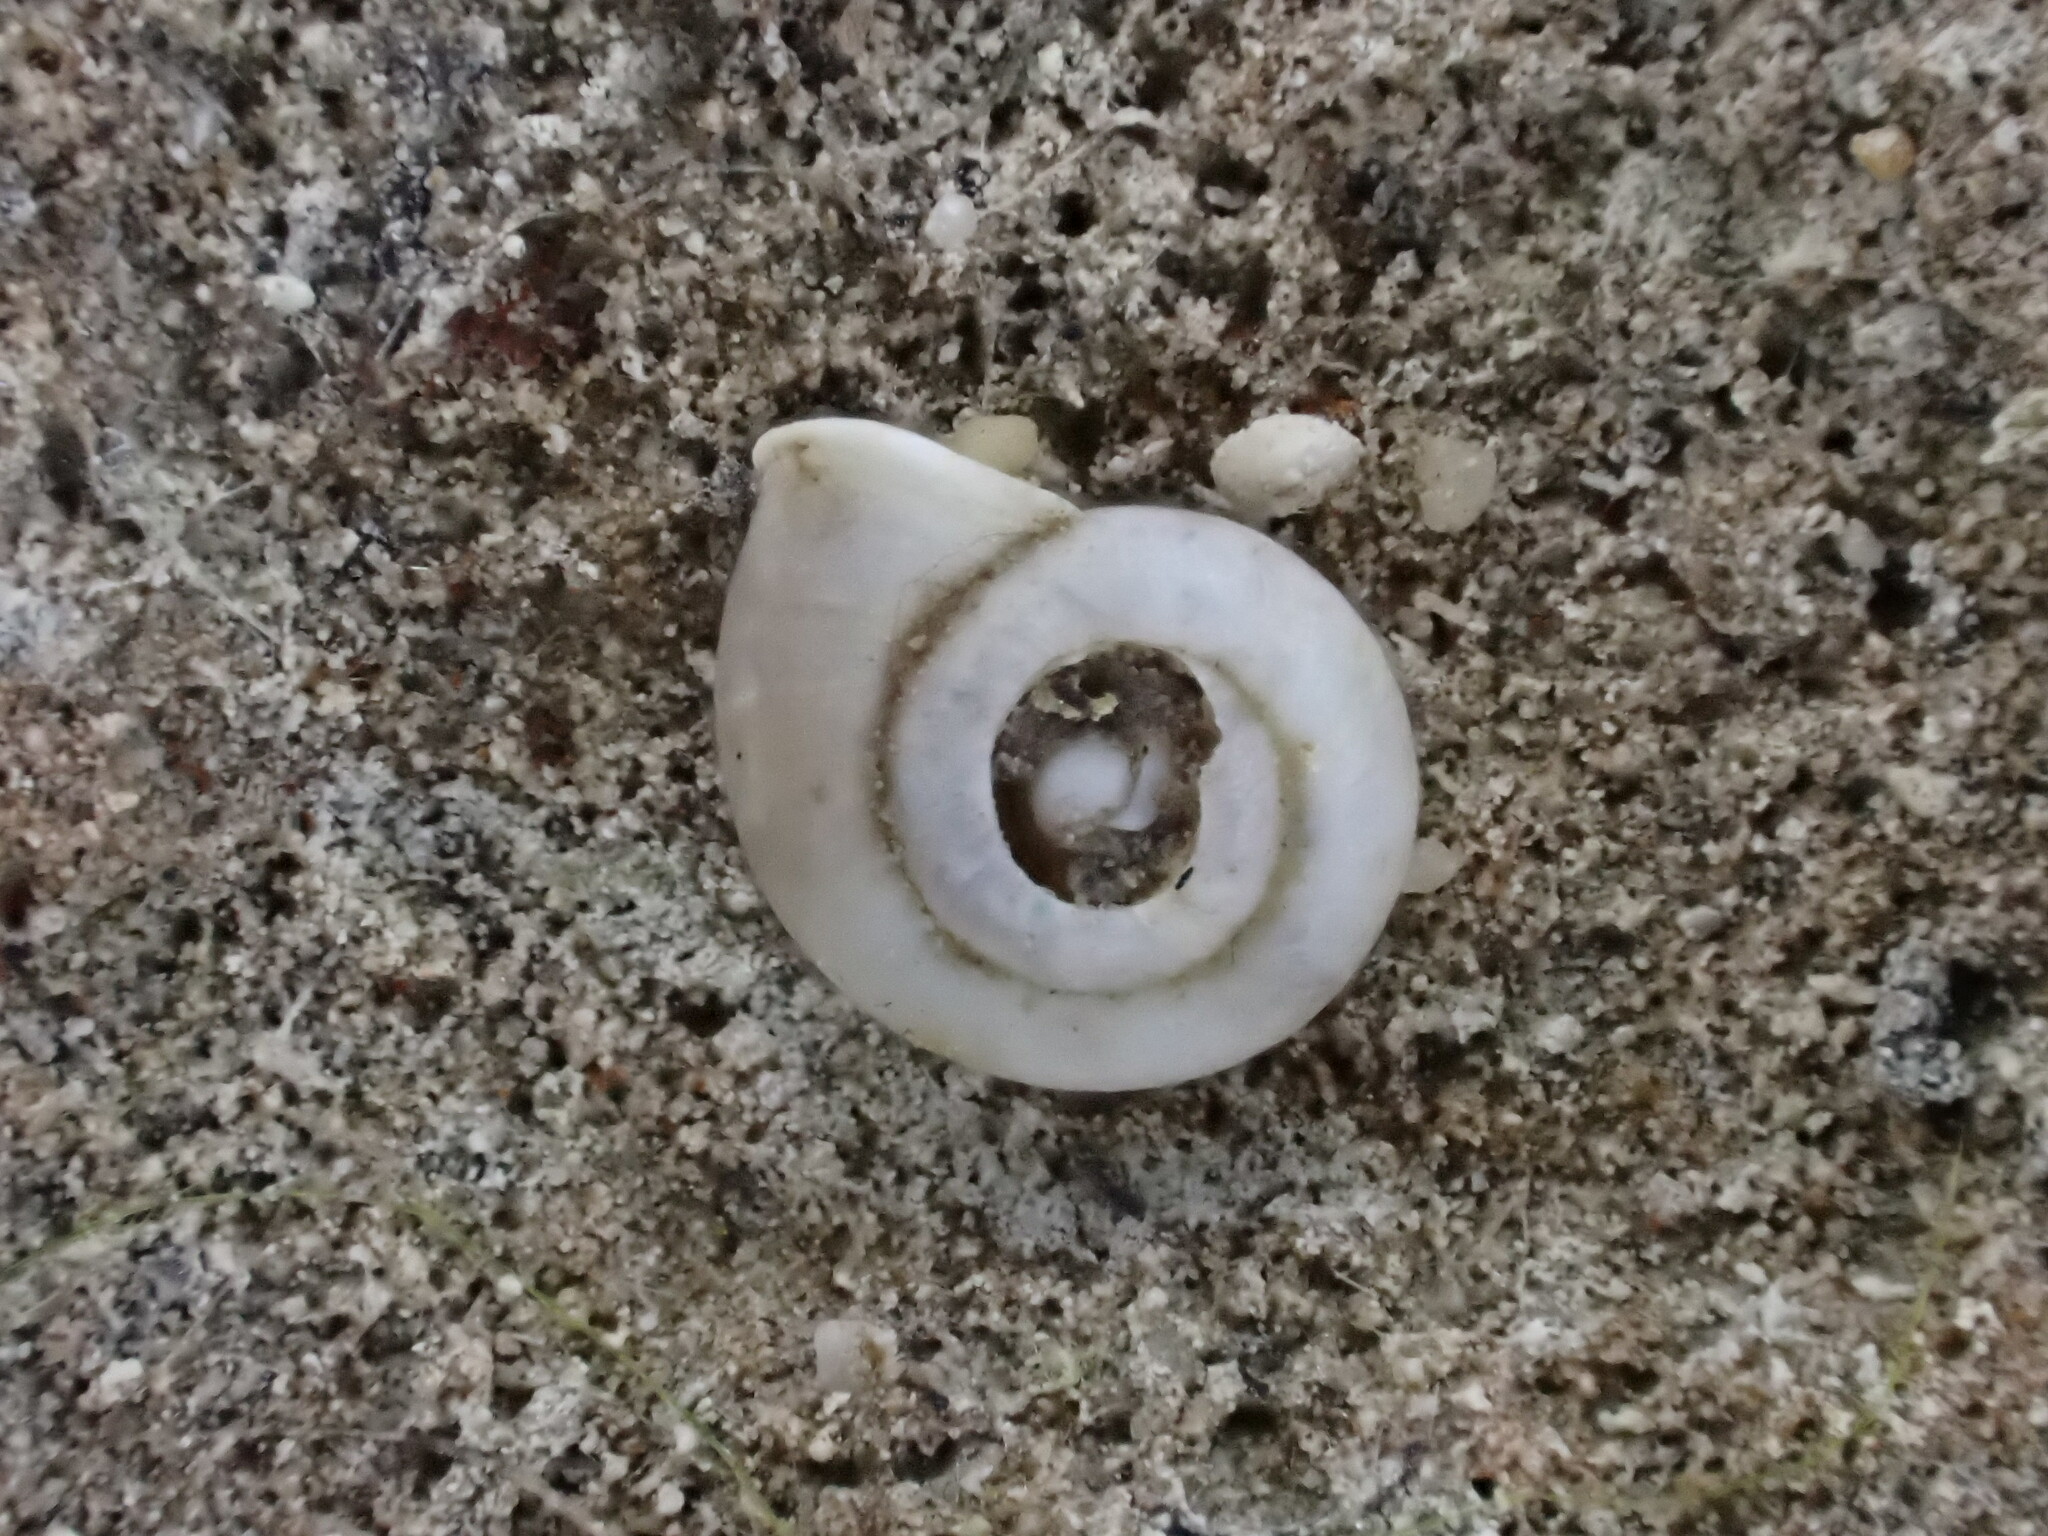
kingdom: Animalia
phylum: Mollusca
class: Gastropoda
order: Stylommatophora
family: Valloniidae
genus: Vallonia
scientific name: Vallonia pulchella
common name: Smooth grass snail
